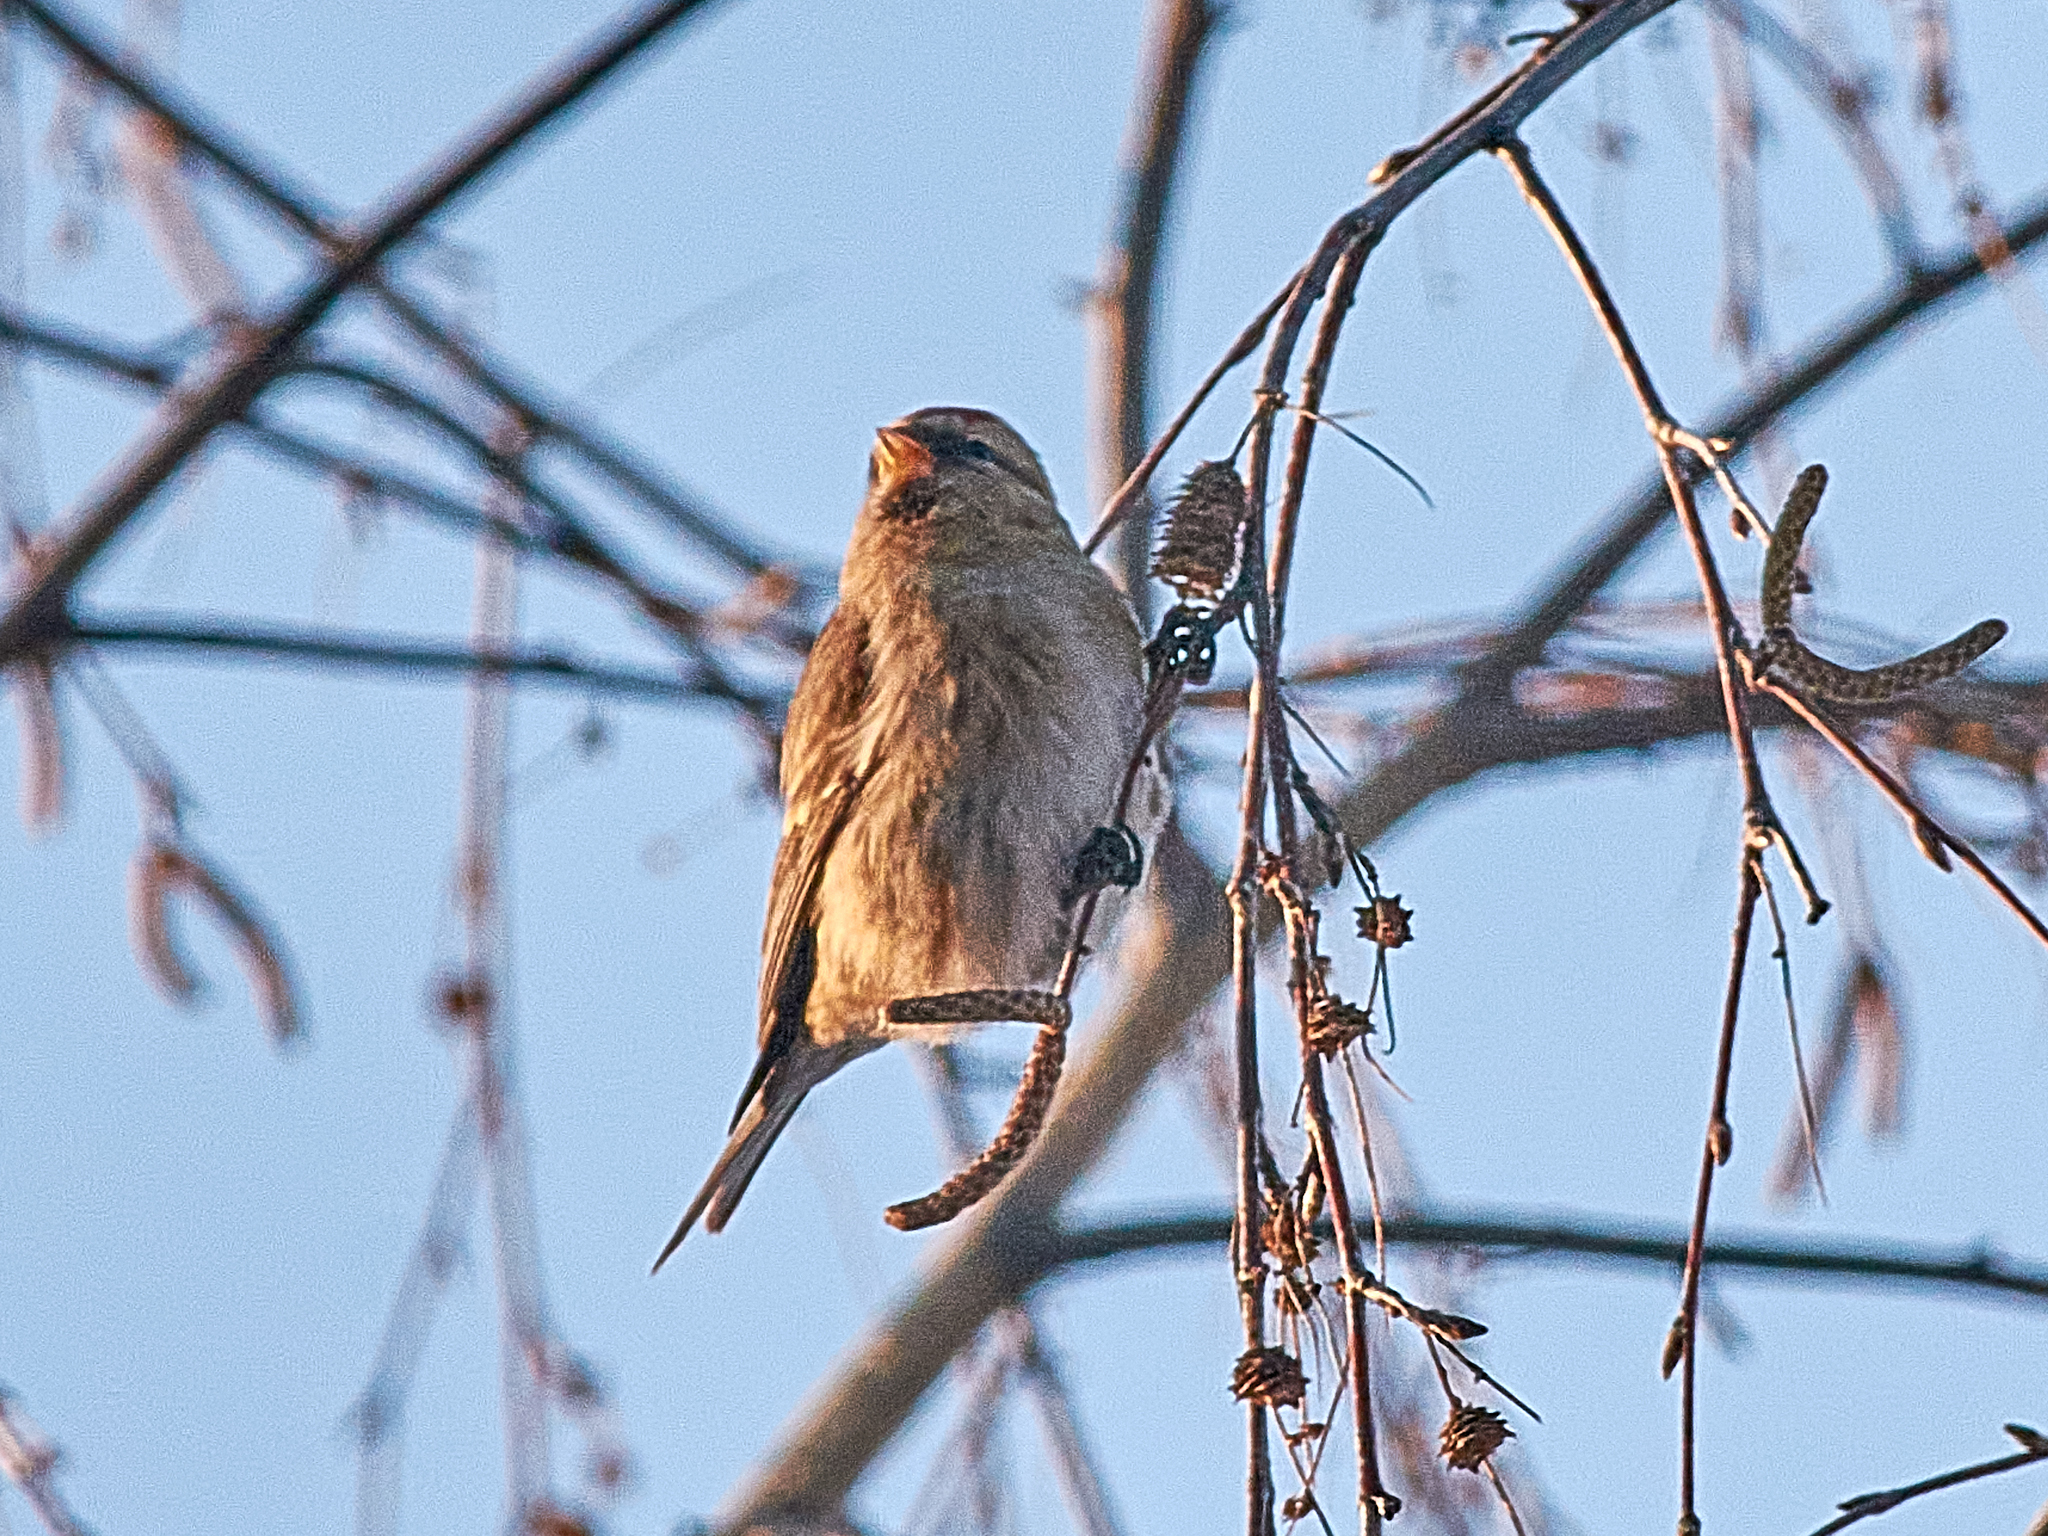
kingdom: Animalia
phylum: Chordata
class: Aves
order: Passeriformes
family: Fringillidae
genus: Acanthis
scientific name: Acanthis flammea
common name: Common redpoll
